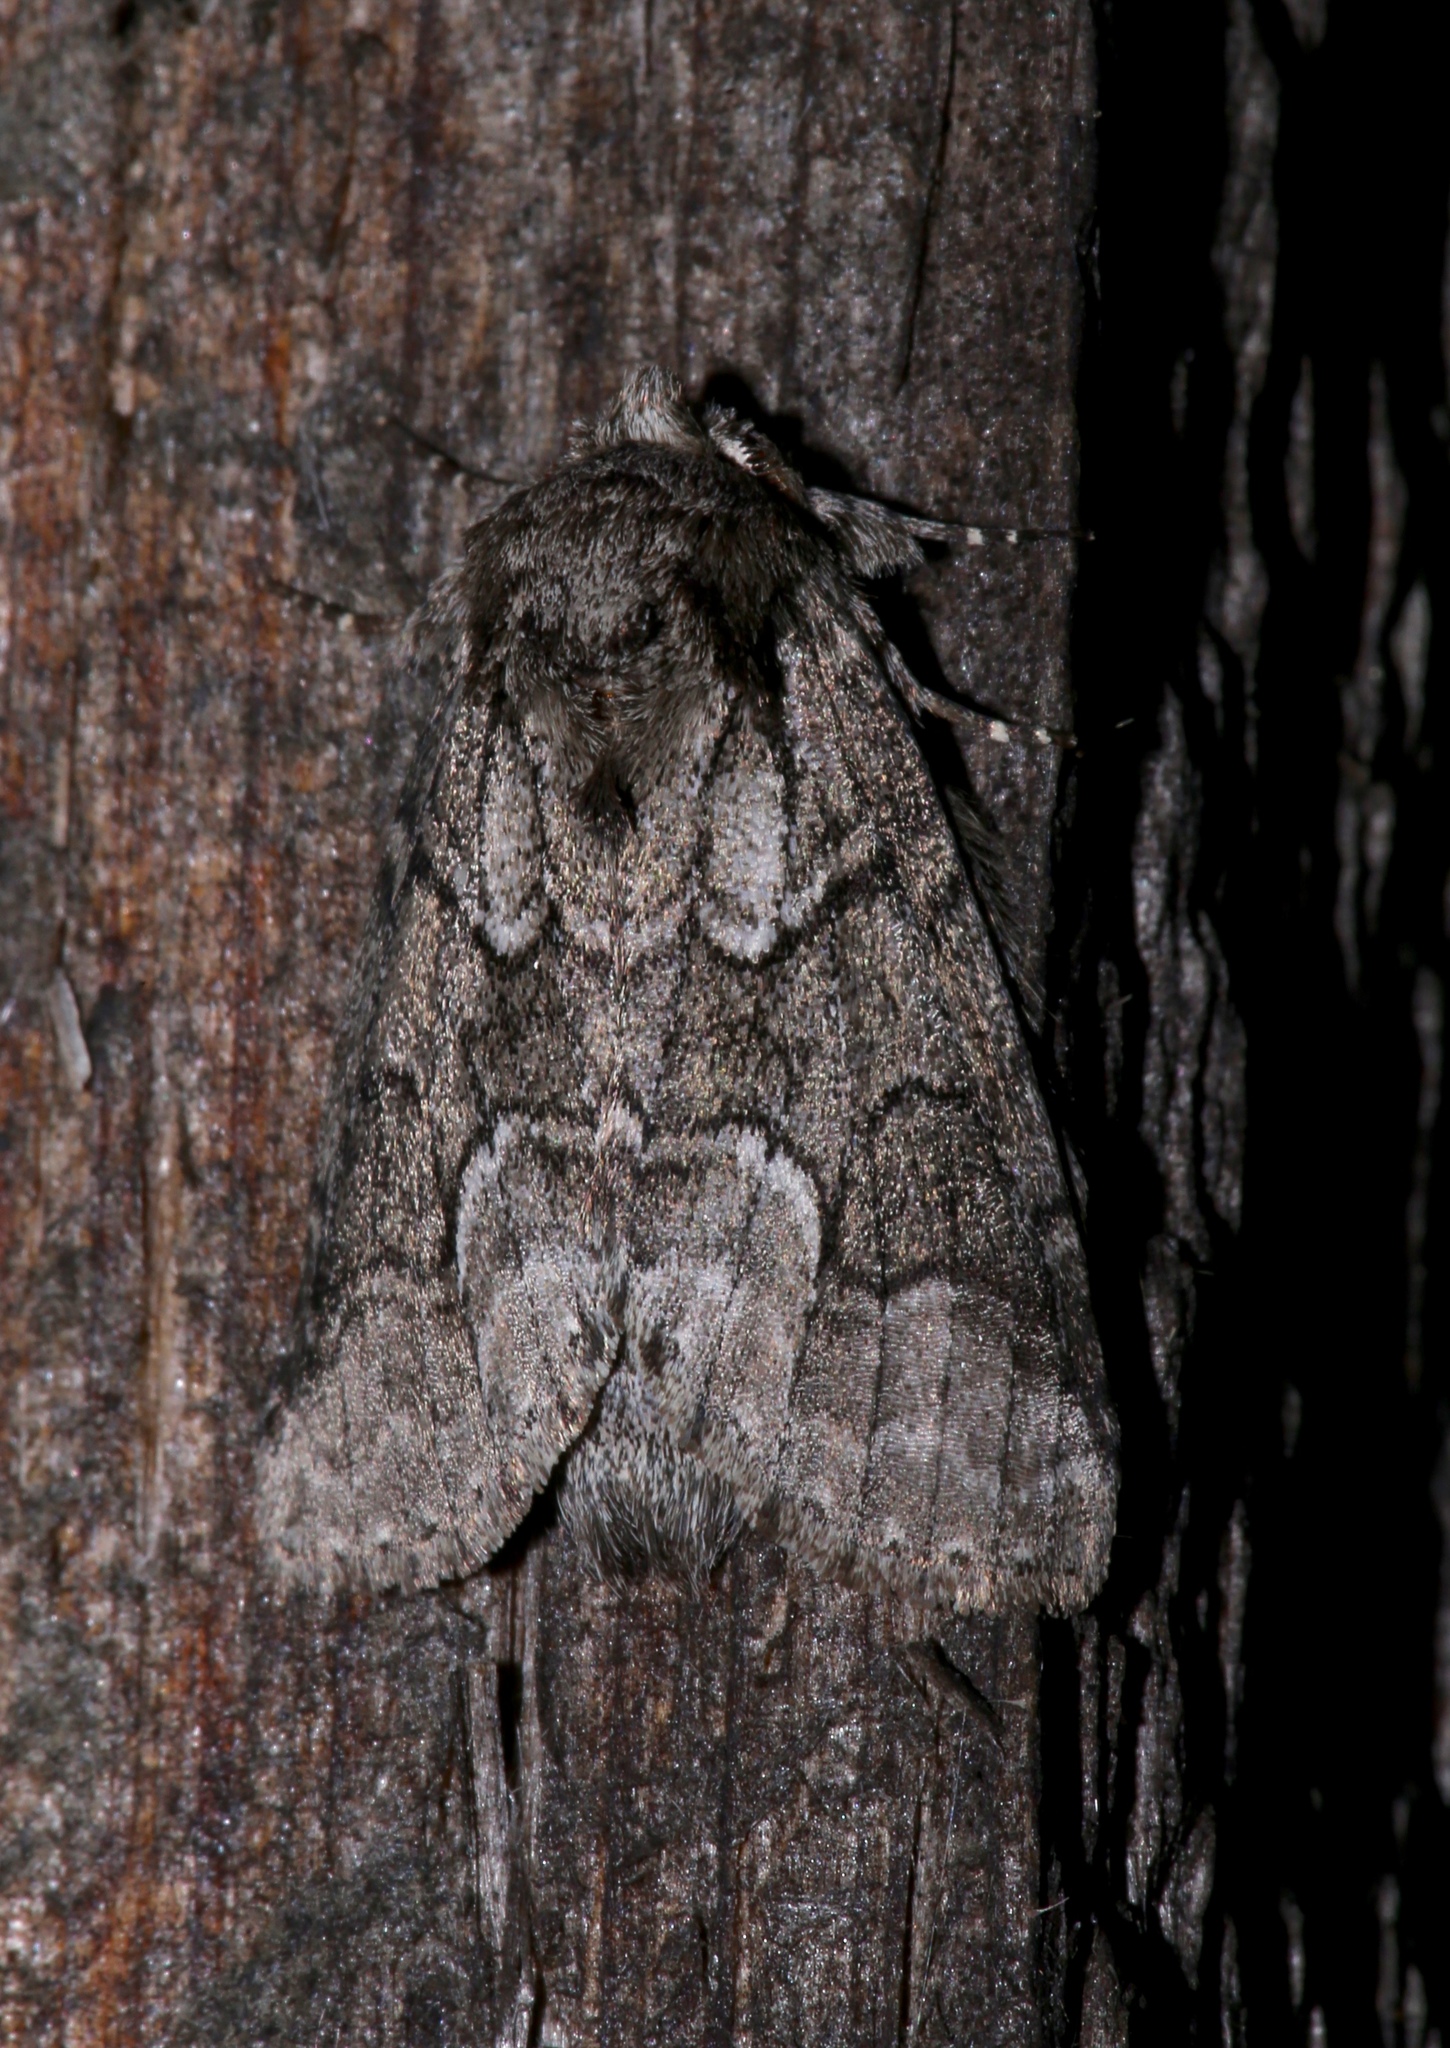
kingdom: Animalia
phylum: Arthropoda
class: Insecta
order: Lepidoptera
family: Notodontidae
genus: Lochmaeus
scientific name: Lochmaeus bilineata
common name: Double-lined prominent
